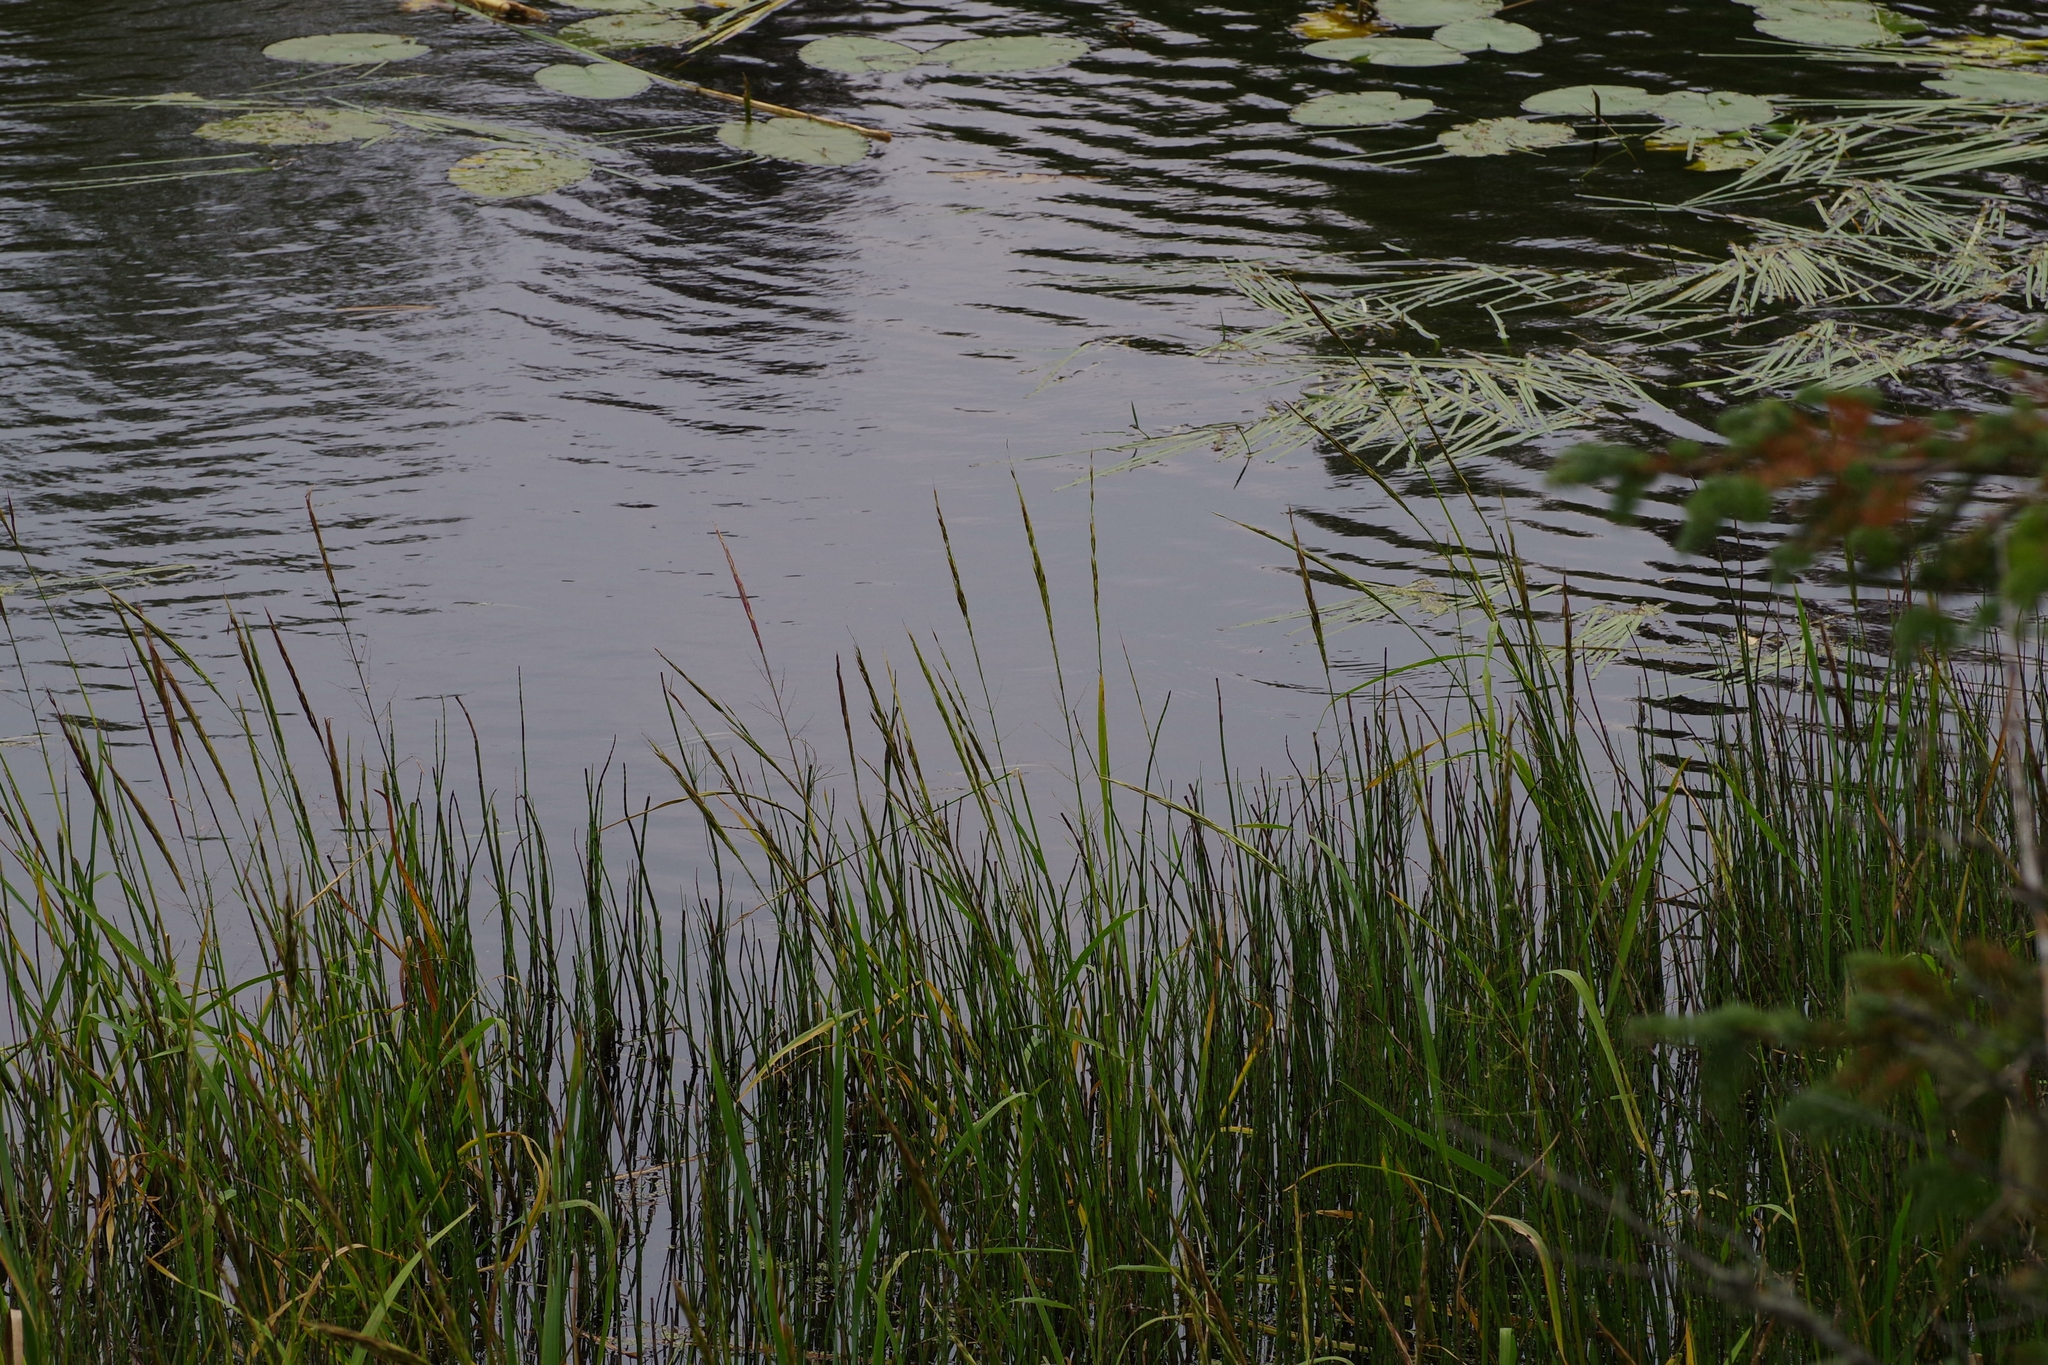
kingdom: Plantae
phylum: Tracheophyta
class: Liliopsida
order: Poales
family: Poaceae
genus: Zizania
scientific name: Zizania palustris
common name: Northern wild rice
